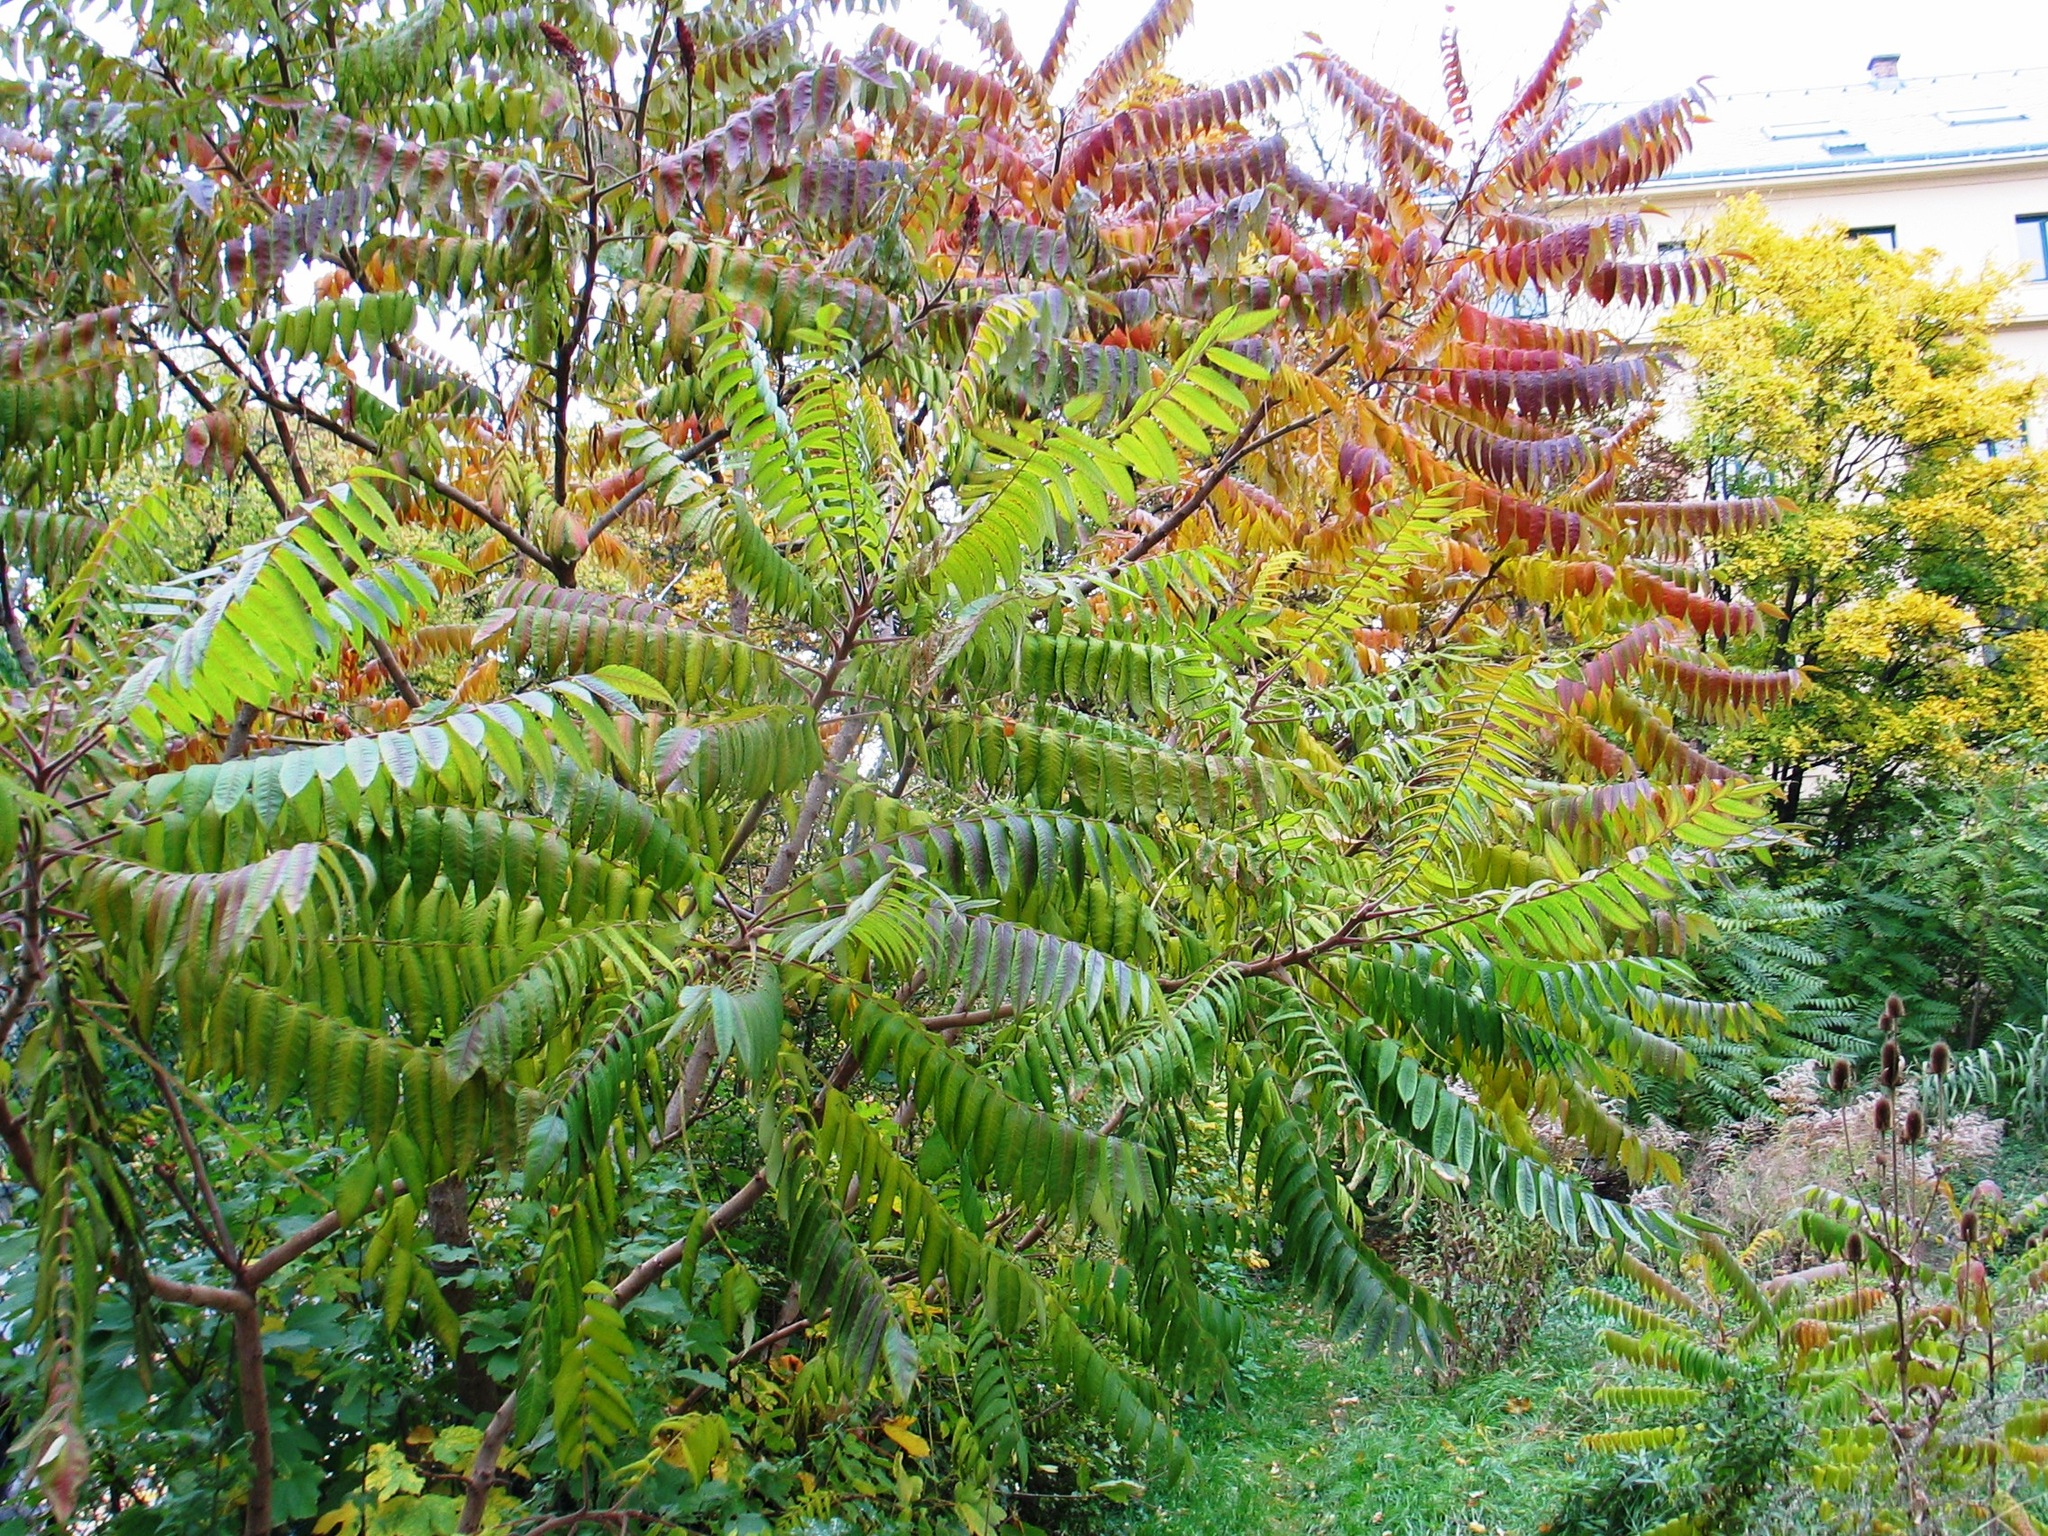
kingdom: Plantae
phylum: Tracheophyta
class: Magnoliopsida
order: Sapindales
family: Anacardiaceae
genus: Rhus
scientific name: Rhus typhina
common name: Staghorn sumac
